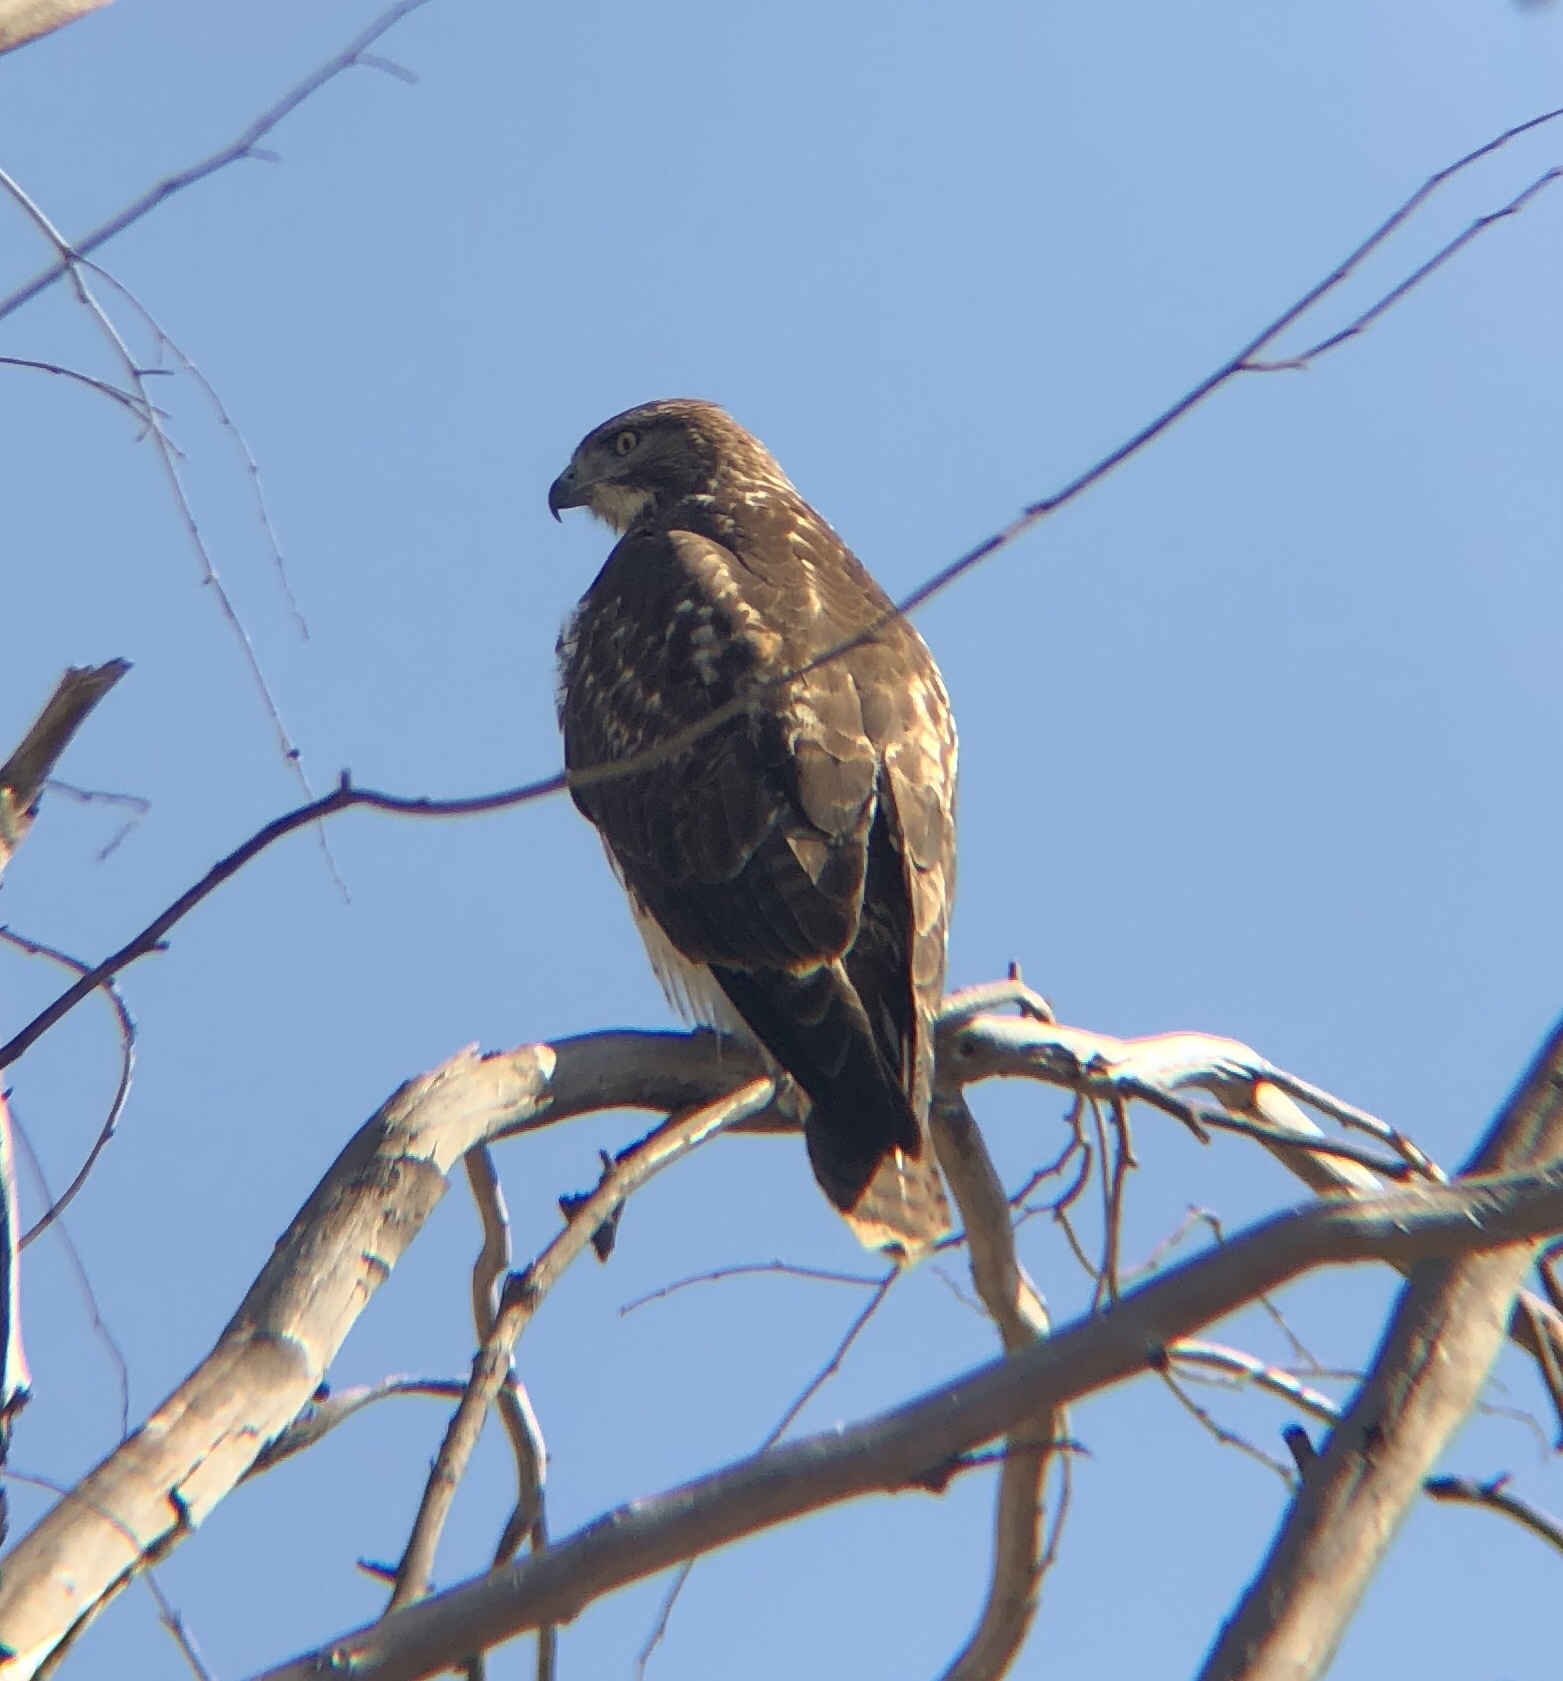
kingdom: Animalia
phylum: Chordata
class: Aves
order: Accipitriformes
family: Accipitridae
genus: Buteo
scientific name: Buteo jamaicensis
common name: Red-tailed hawk
